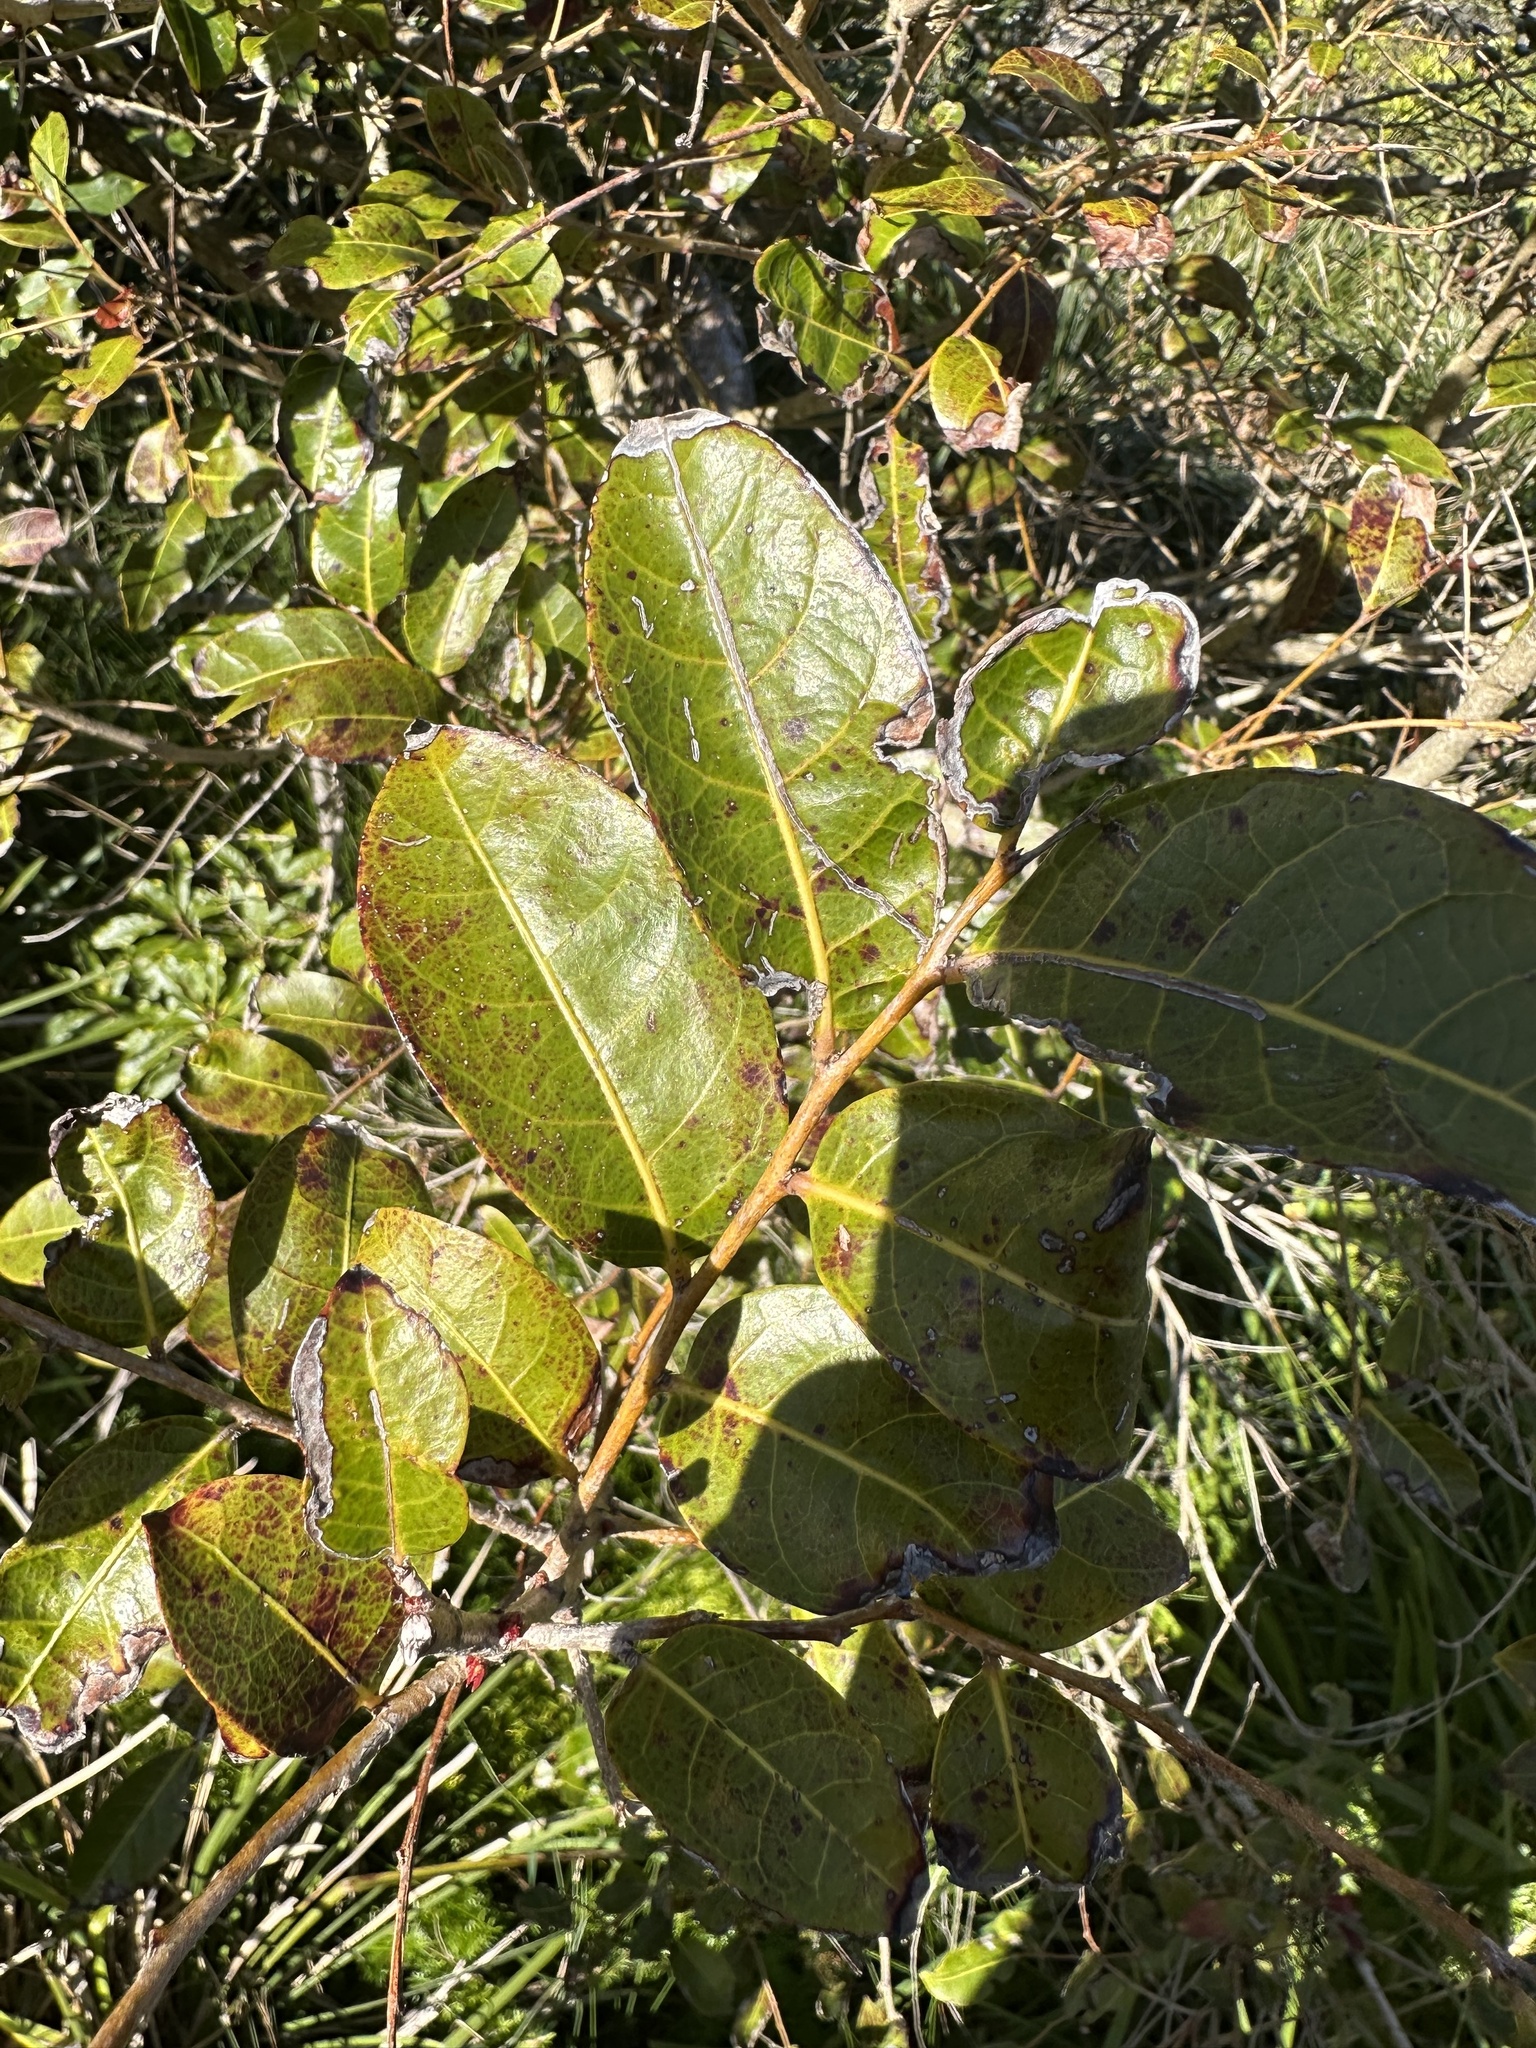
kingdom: Plantae
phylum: Tracheophyta
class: Magnoliopsida
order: Malpighiales
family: Phyllanthaceae
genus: Glochidion
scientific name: Glochidion ferdinandi
